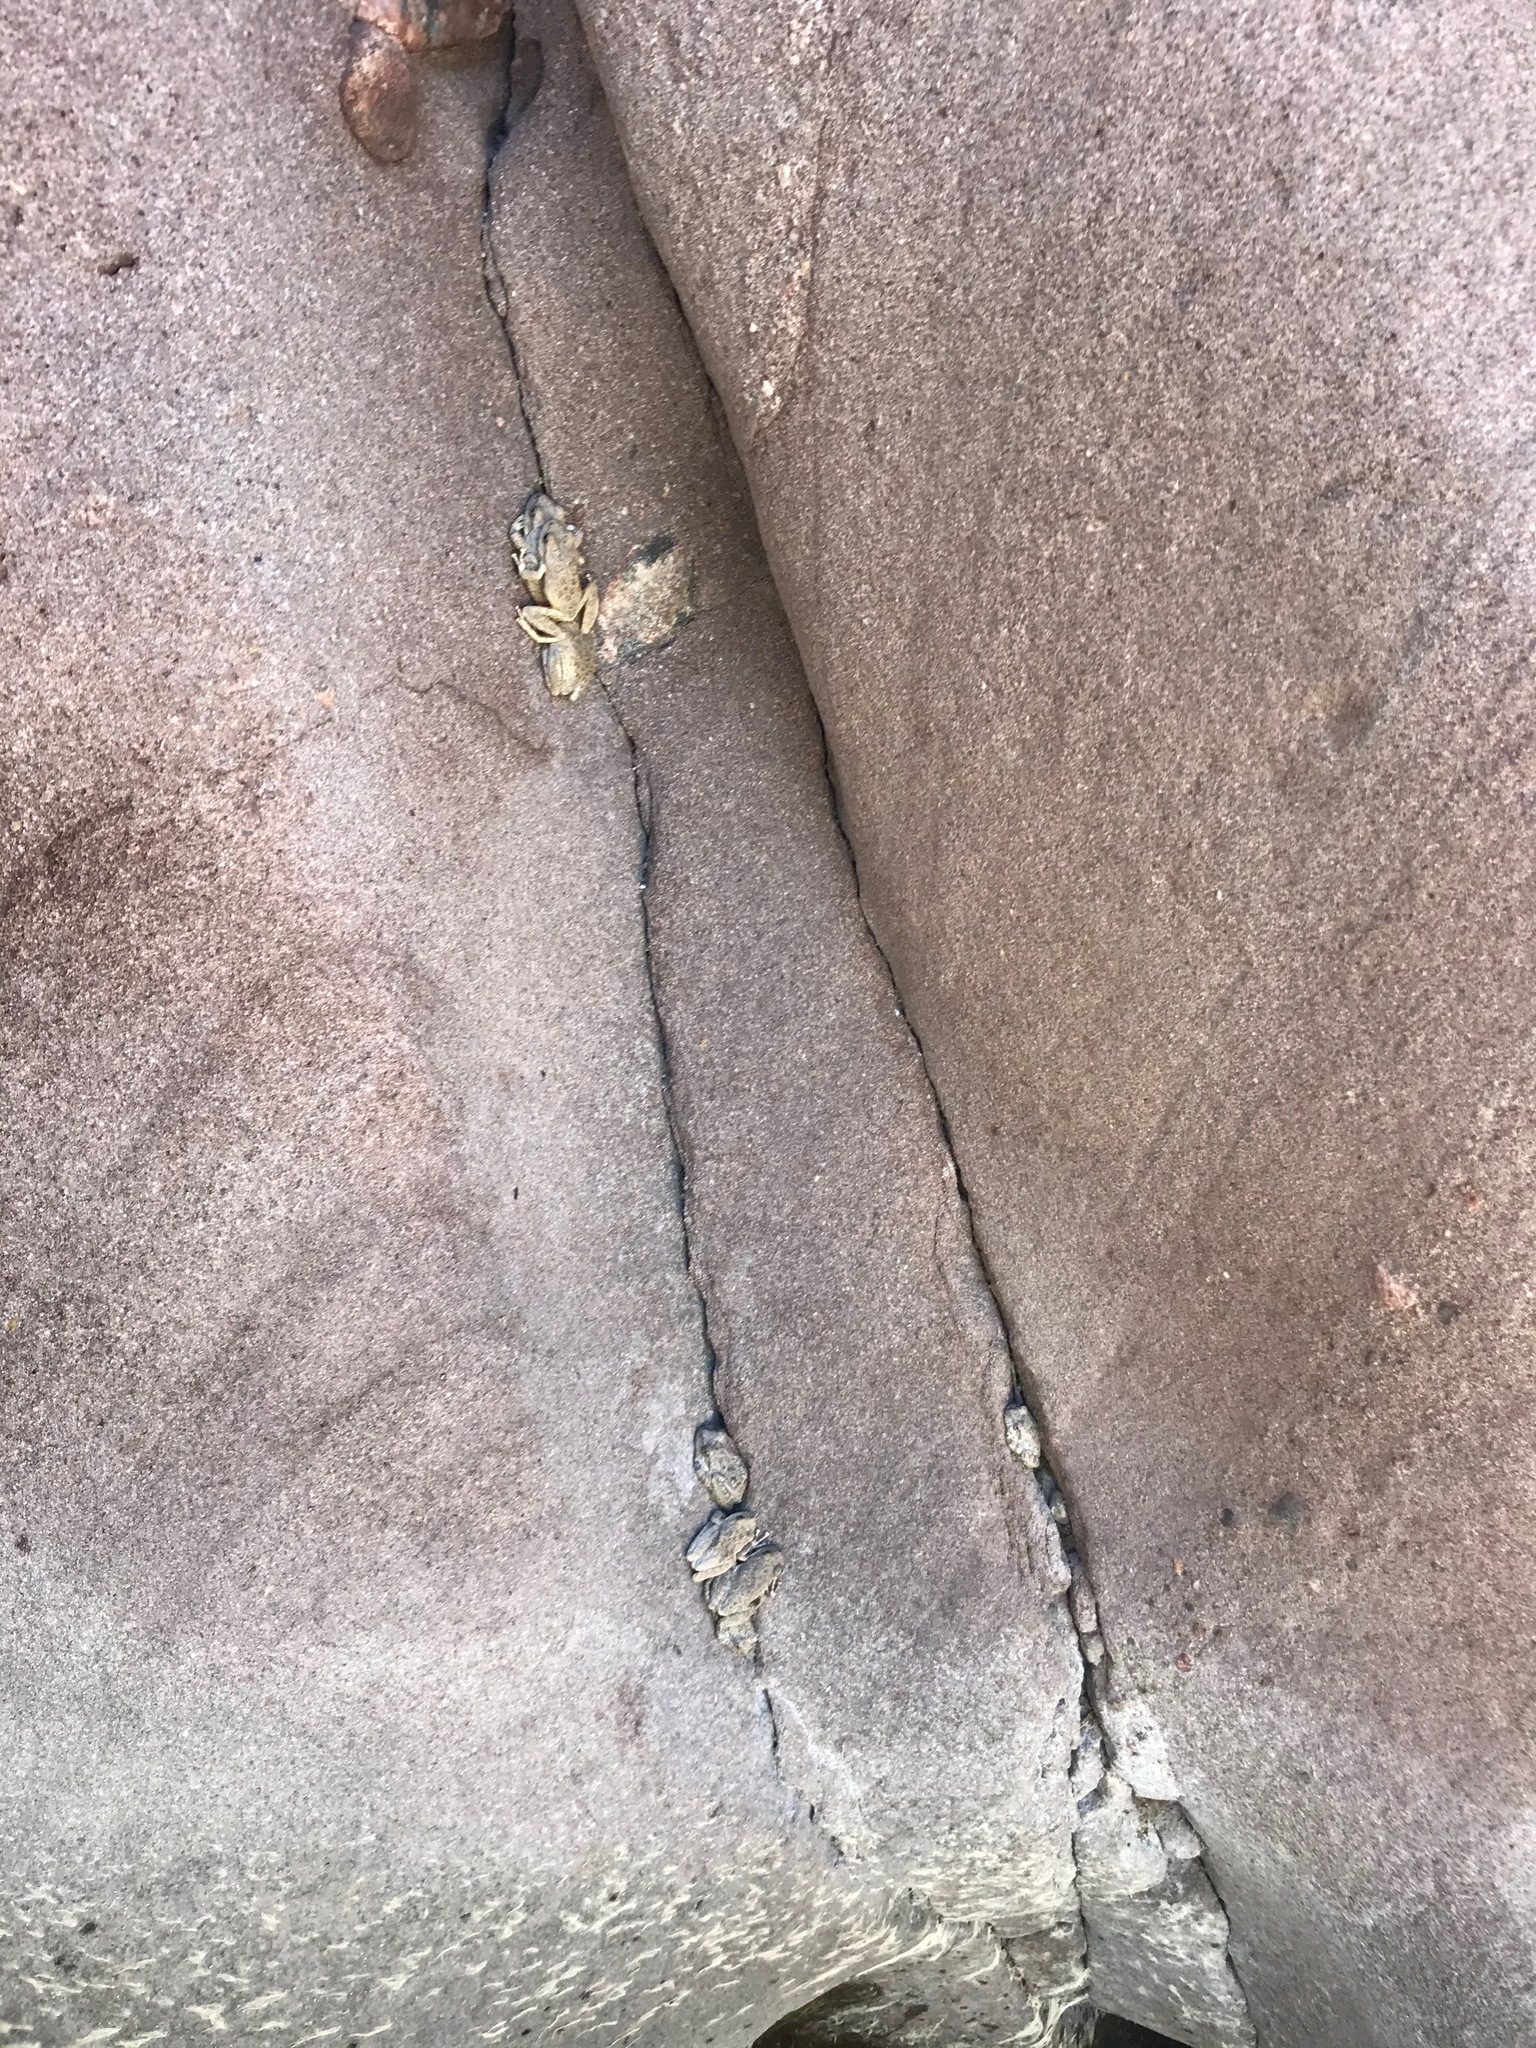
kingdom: Animalia
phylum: Chordata
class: Amphibia
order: Anura
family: Hylidae
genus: Pseudacris
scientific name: Pseudacris cadaverina
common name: California chorus frog
